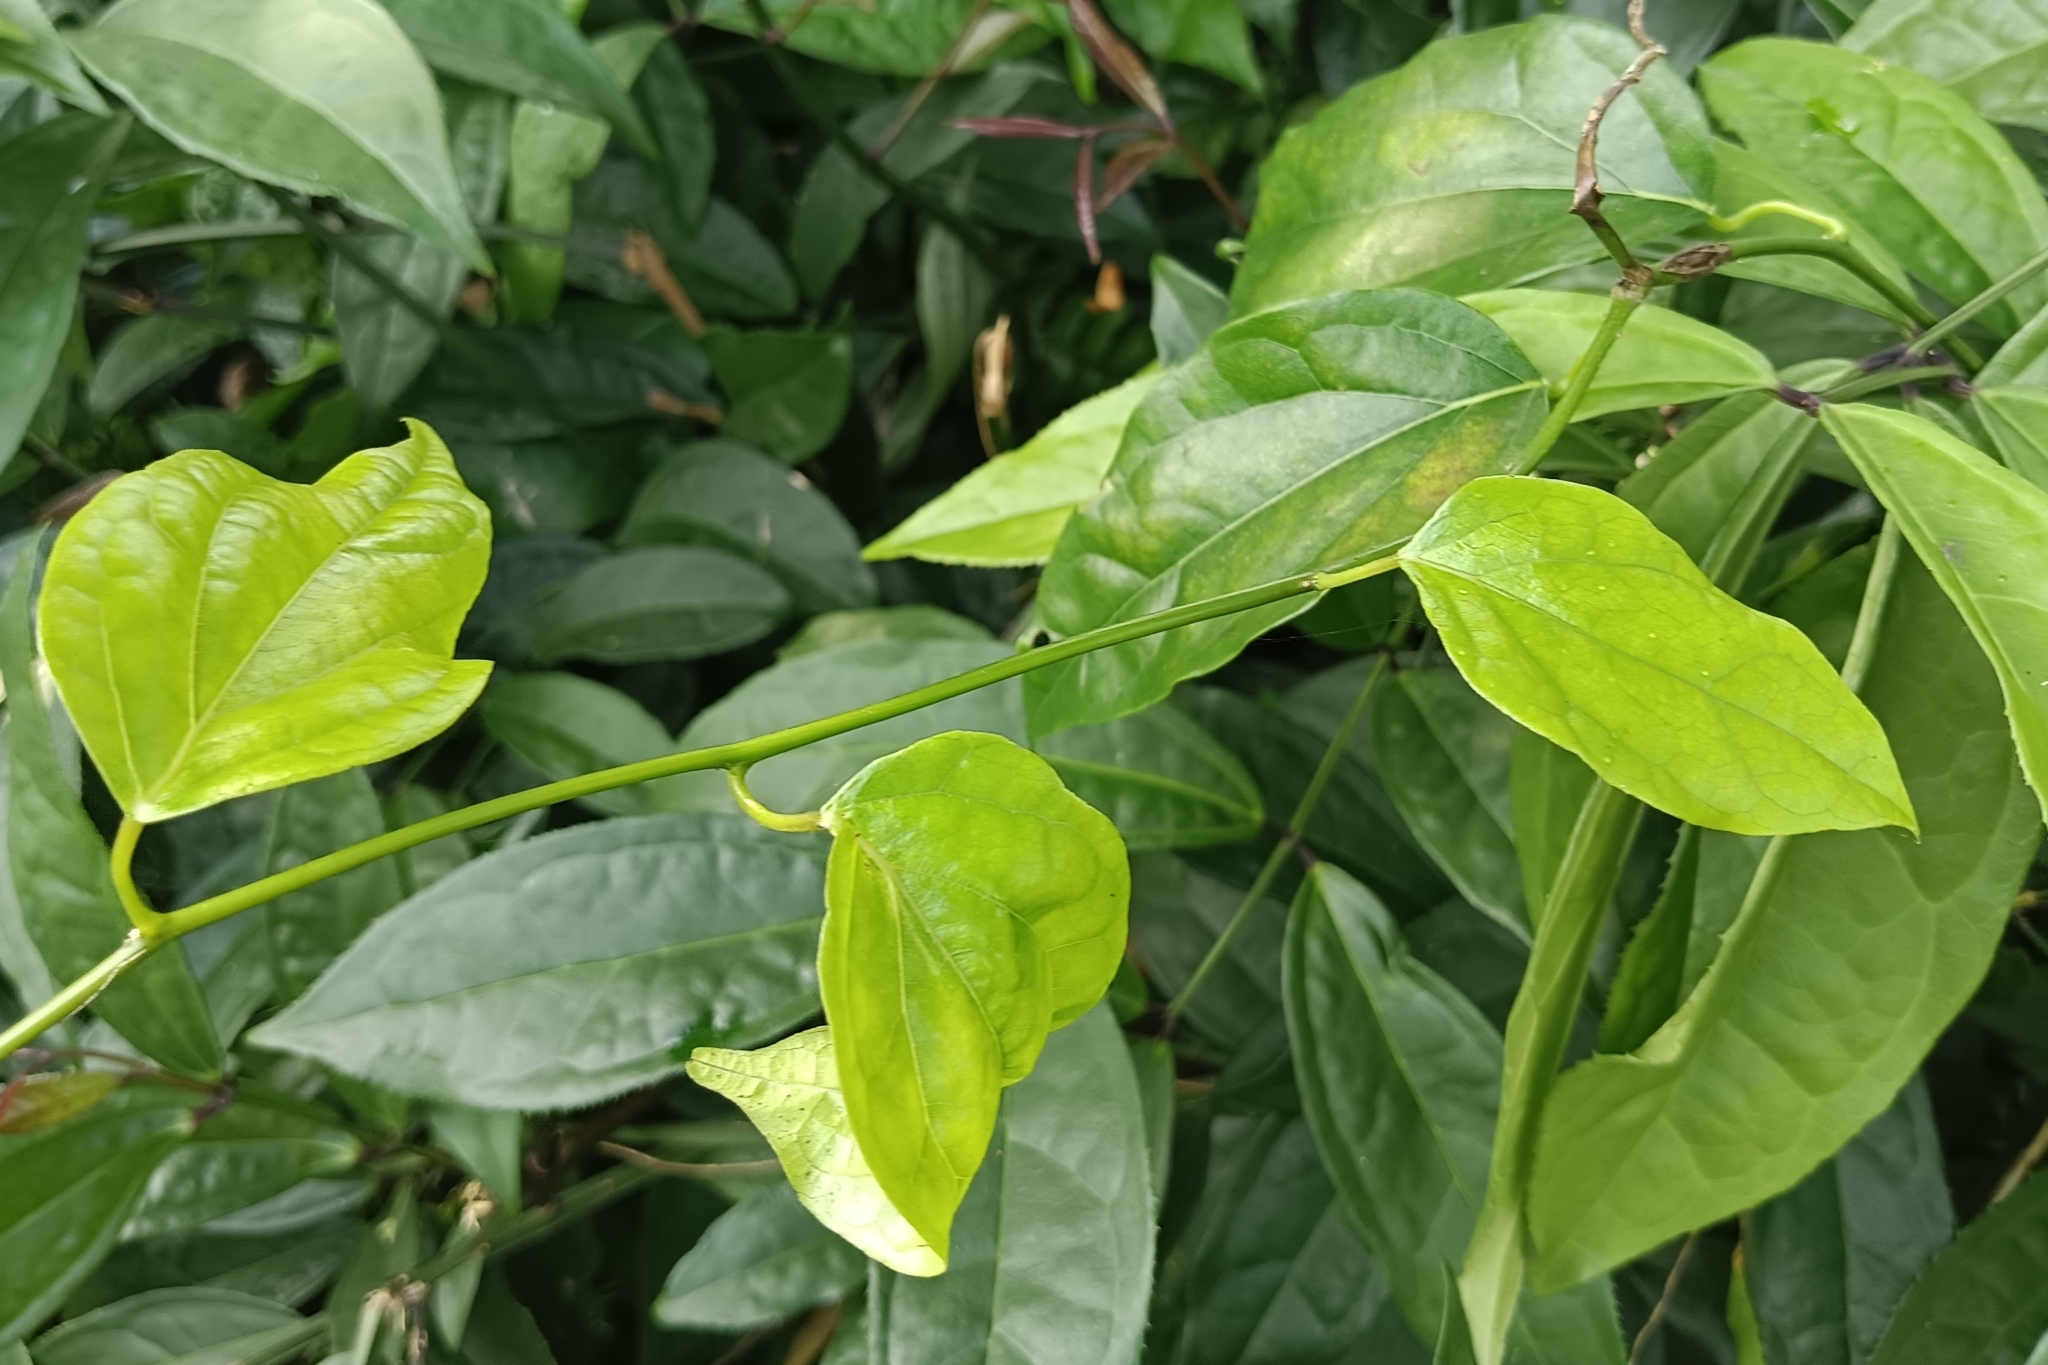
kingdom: Plantae
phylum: Tracheophyta
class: Magnoliopsida
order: Ranunculales
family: Menispermaceae
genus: Tiliacora
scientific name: Tiliacora acuminata
